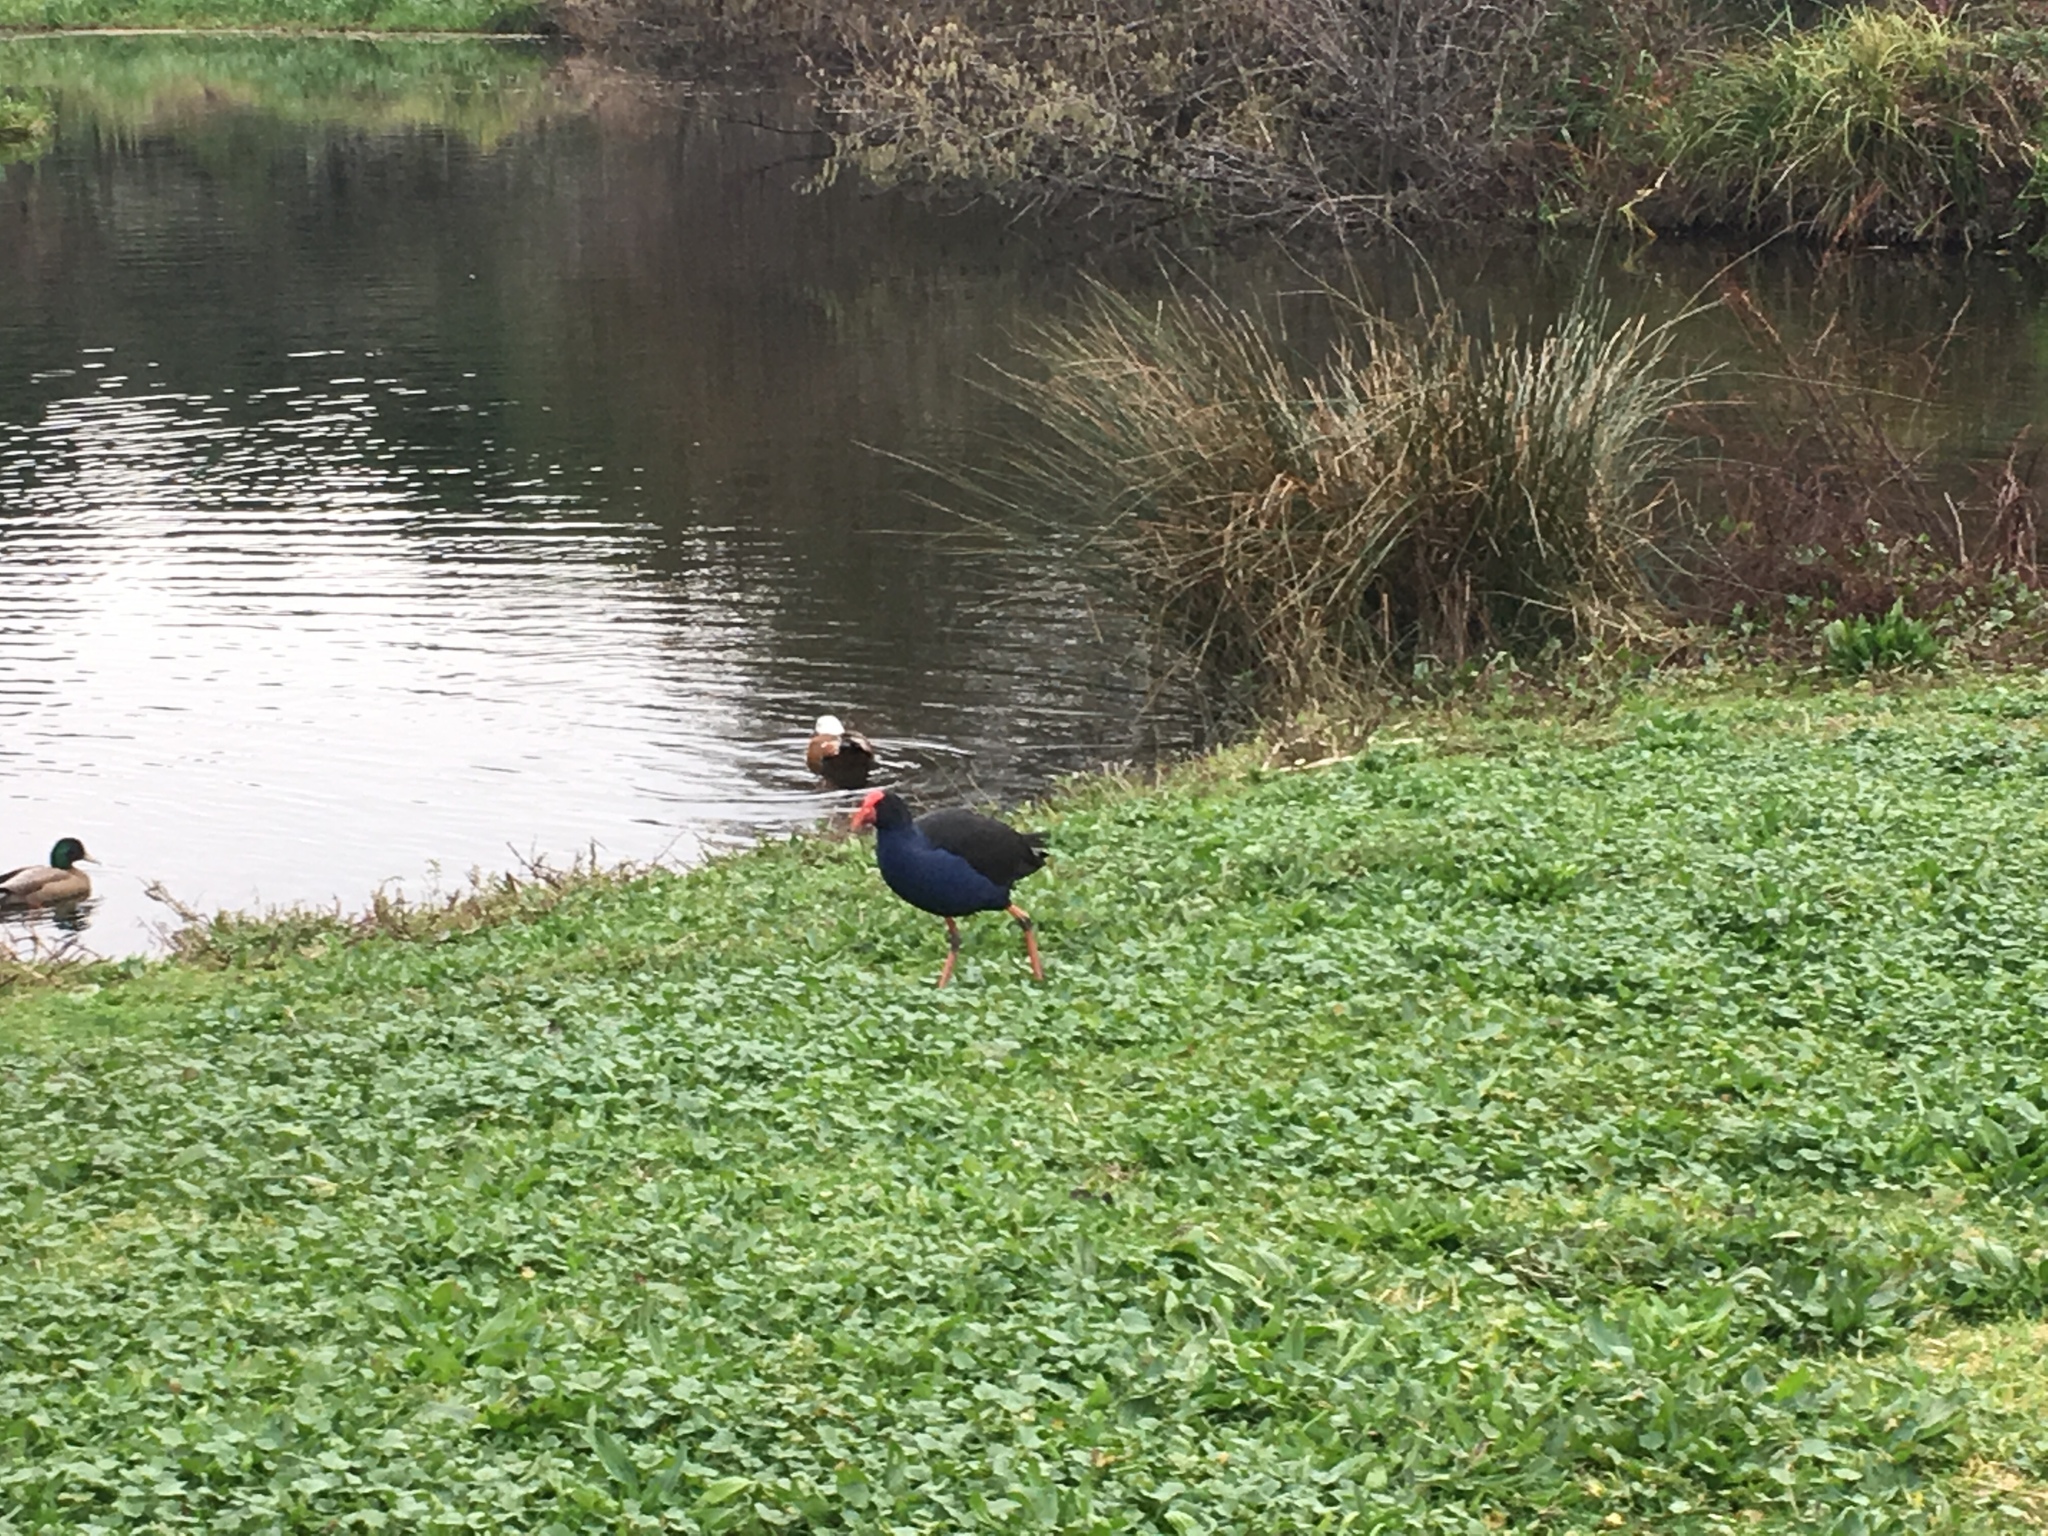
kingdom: Animalia
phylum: Chordata
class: Aves
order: Gruiformes
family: Rallidae
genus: Porphyrio
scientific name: Porphyrio melanotus
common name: Australasian swamphen
